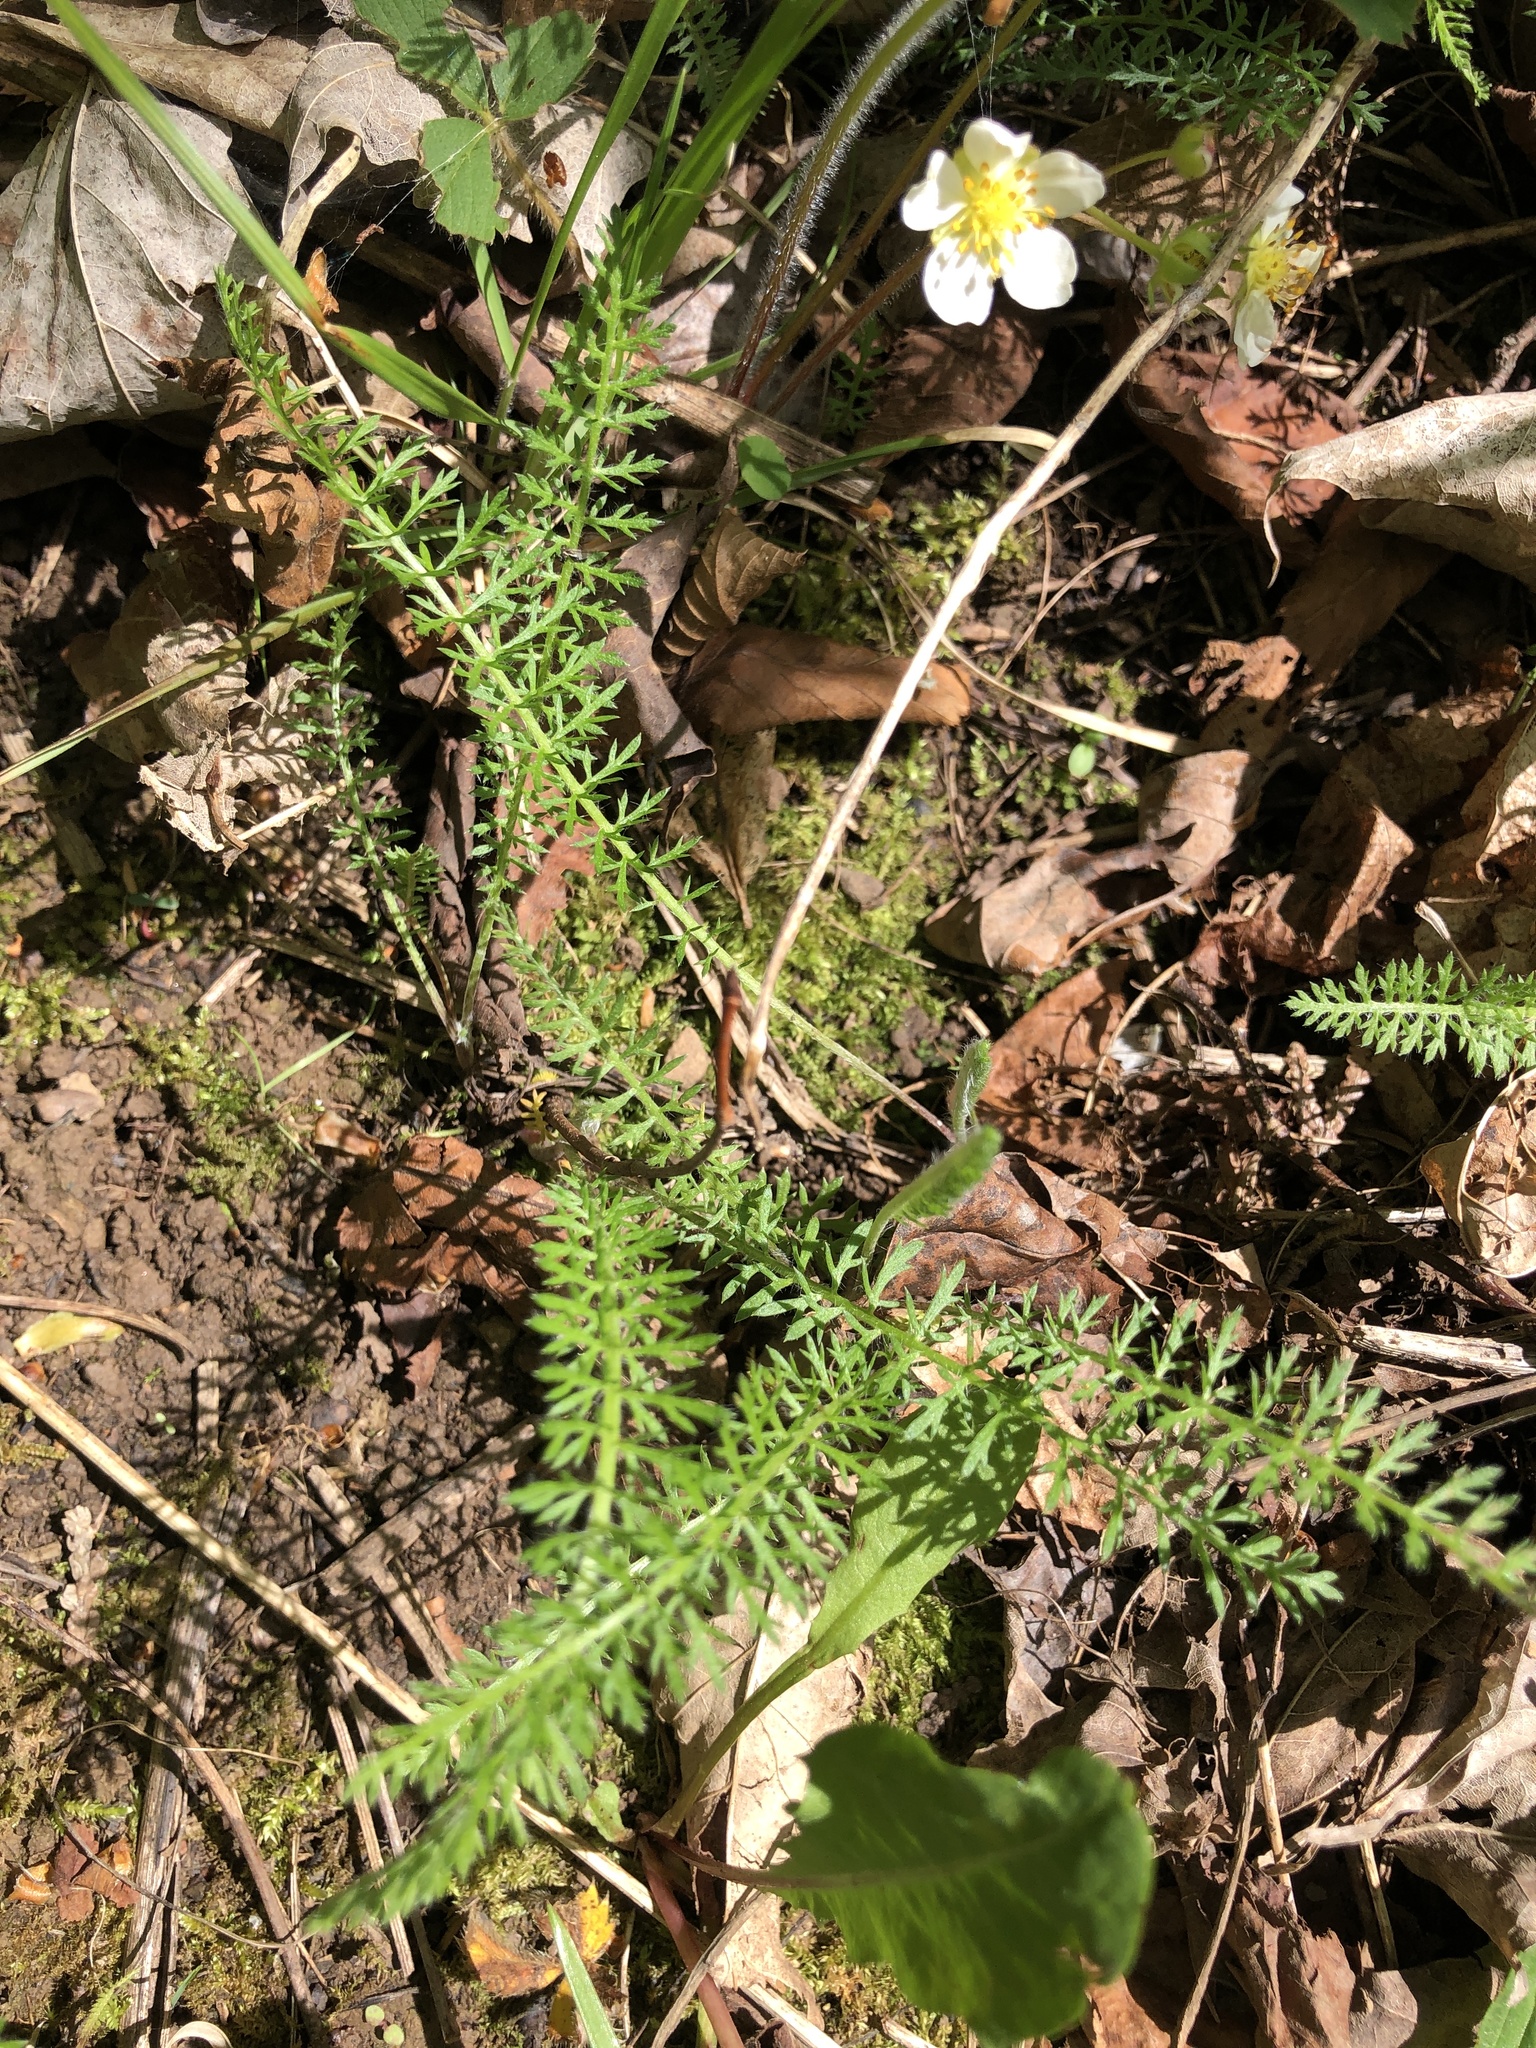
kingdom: Plantae
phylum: Tracheophyta
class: Magnoliopsida
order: Asterales
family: Asteraceae
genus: Achillea
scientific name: Achillea millefolium
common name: Yarrow
